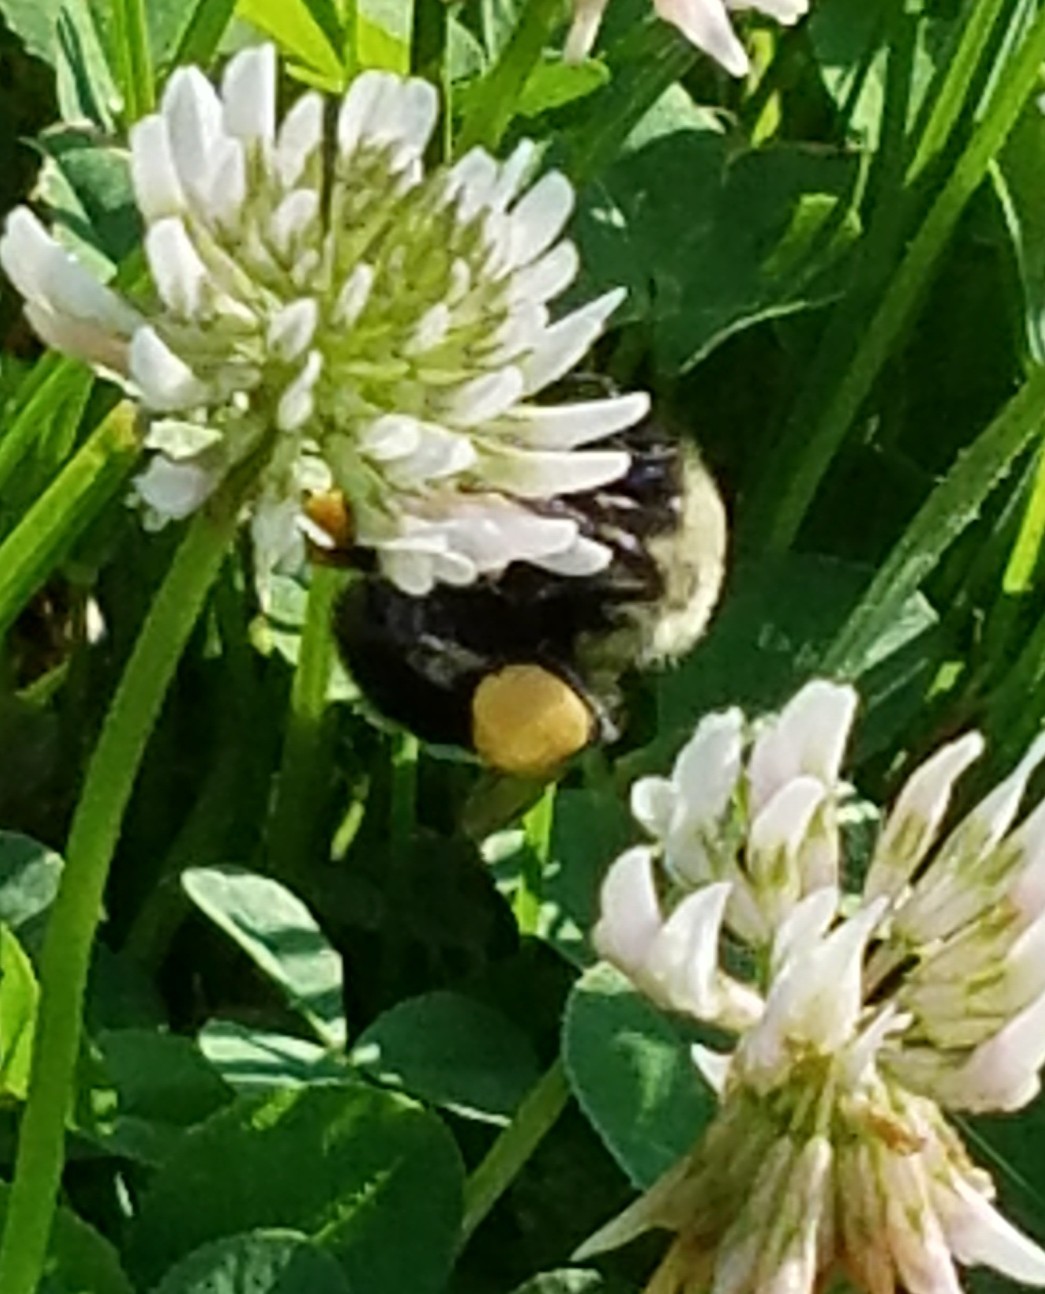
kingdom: Animalia
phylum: Arthropoda
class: Insecta
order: Hymenoptera
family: Apidae
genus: Pyrobombus
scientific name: Pyrobombus
